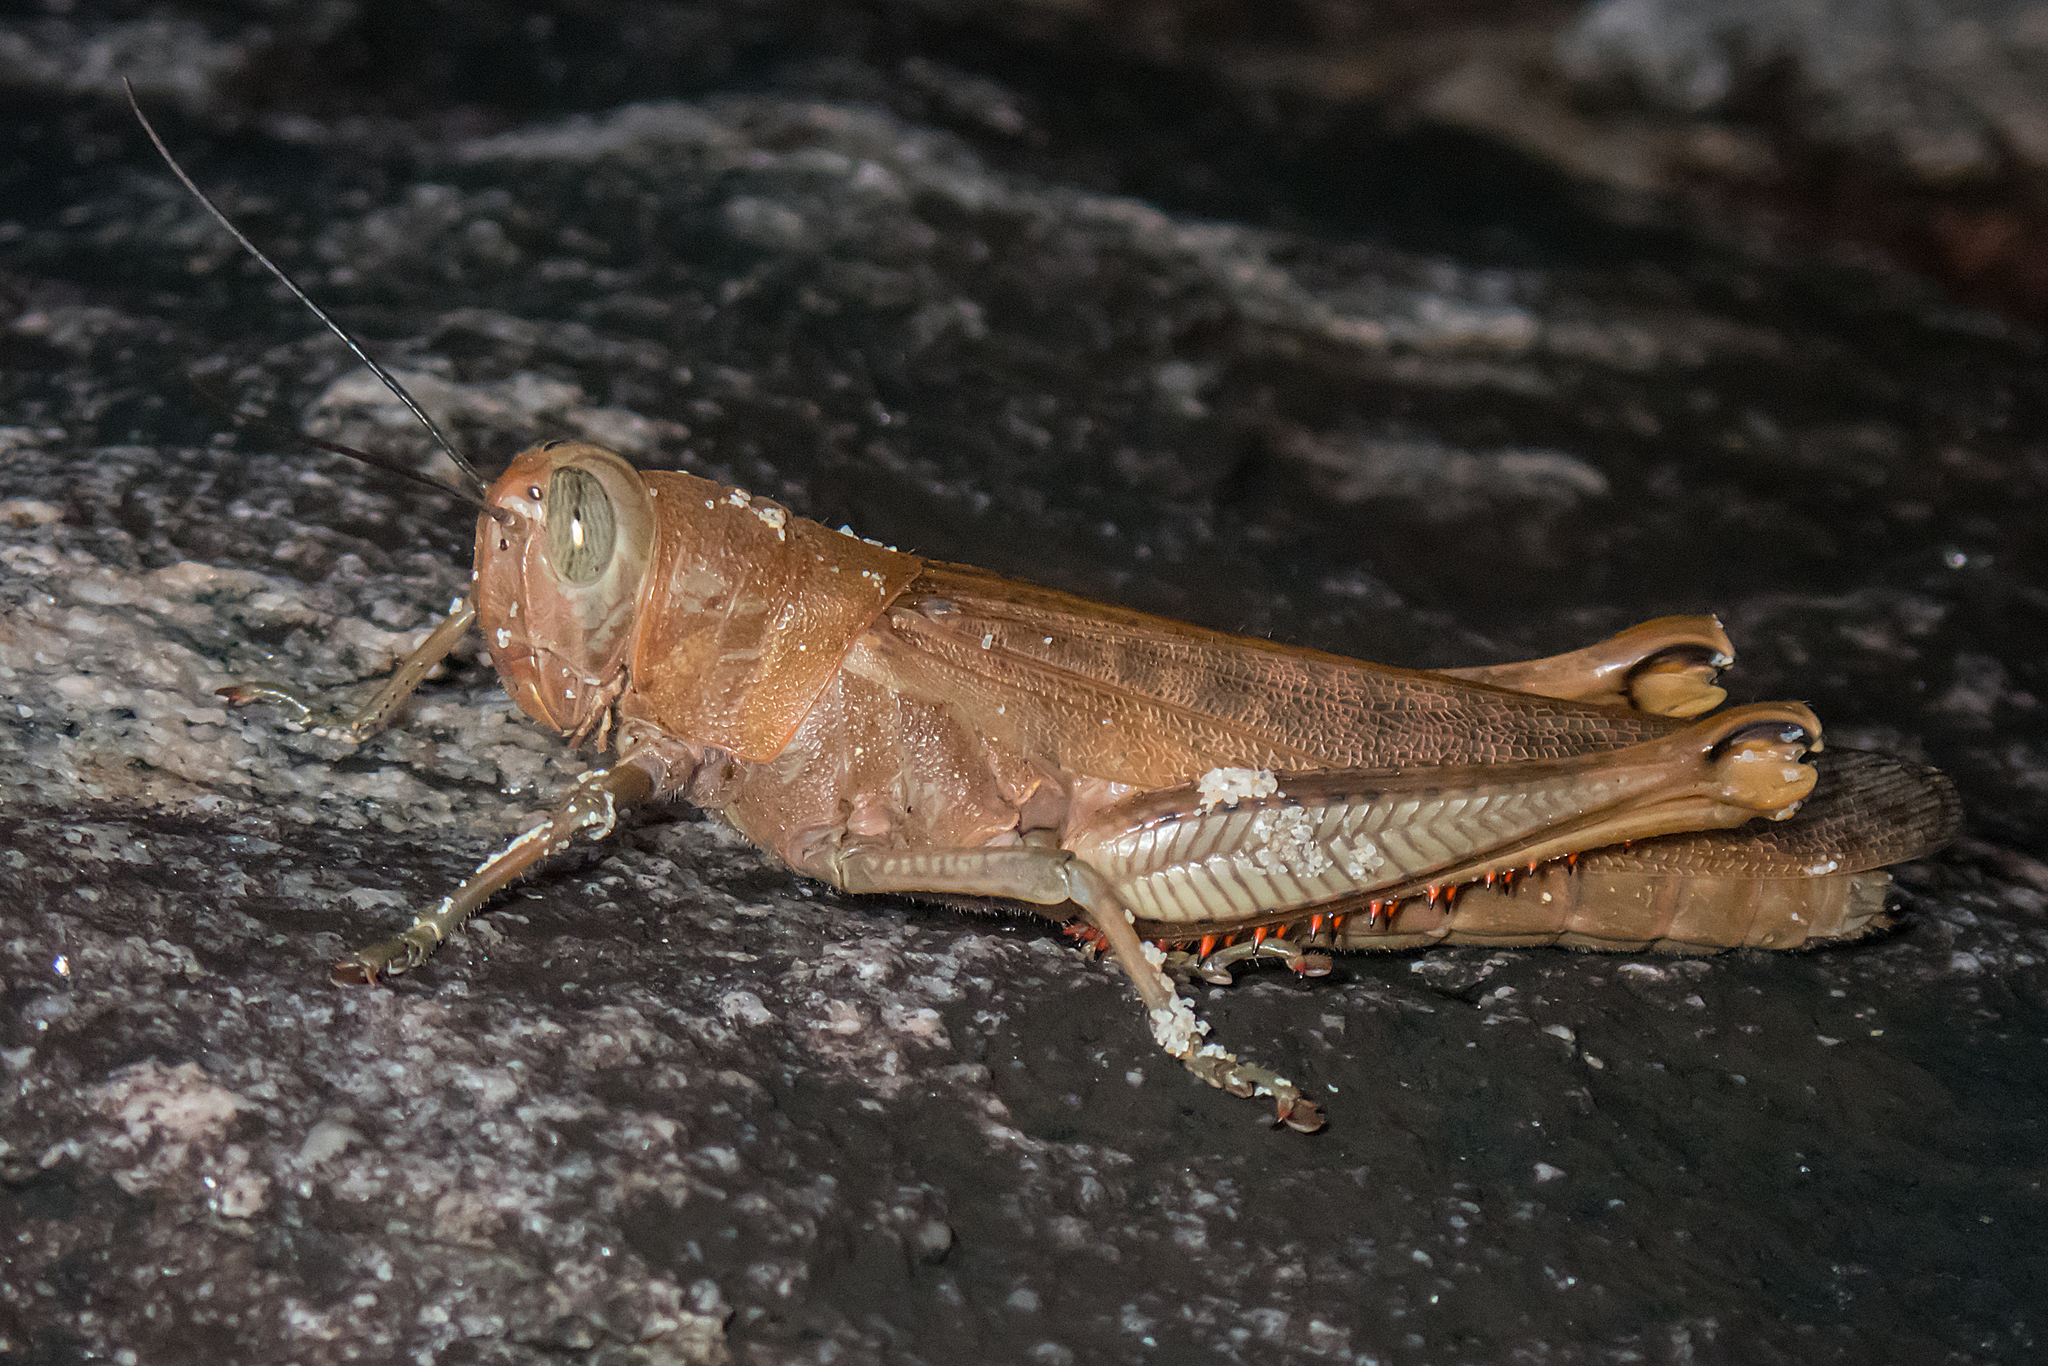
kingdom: Animalia
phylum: Arthropoda
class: Insecta
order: Orthoptera
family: Acrididae
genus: Valanga
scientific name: Valanga irregularis
